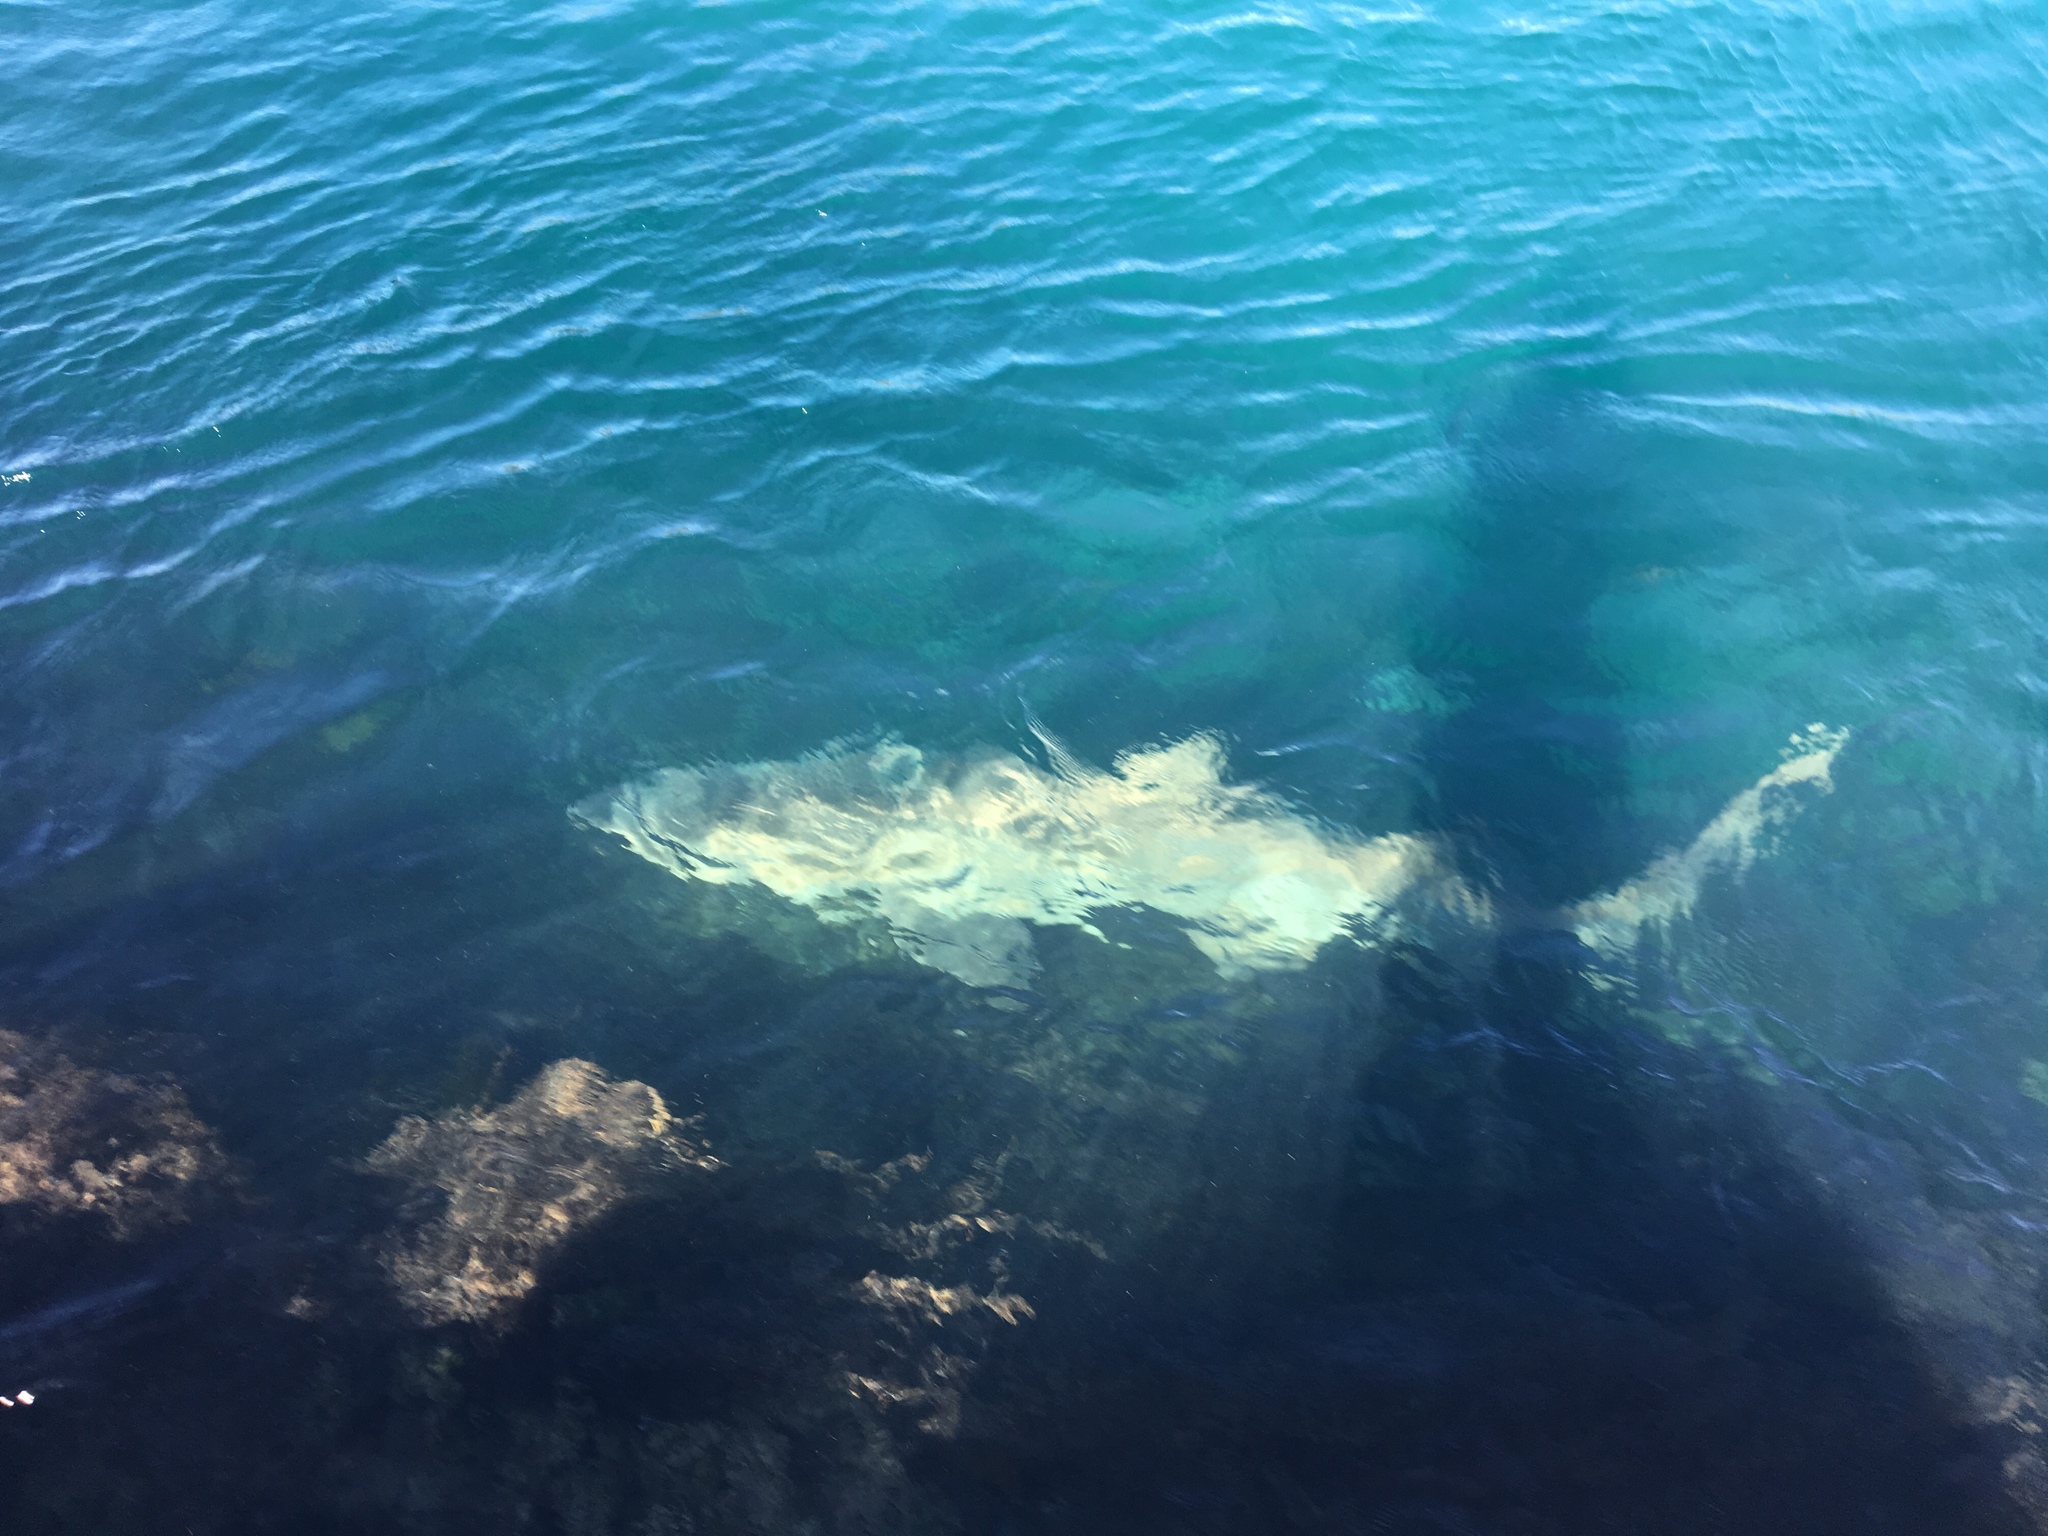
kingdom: Animalia
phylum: Chordata
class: Elasmobranchii
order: Lamniformes
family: Odontaspididae
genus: Carcharias
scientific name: Carcharias taurus
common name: Sand shark
